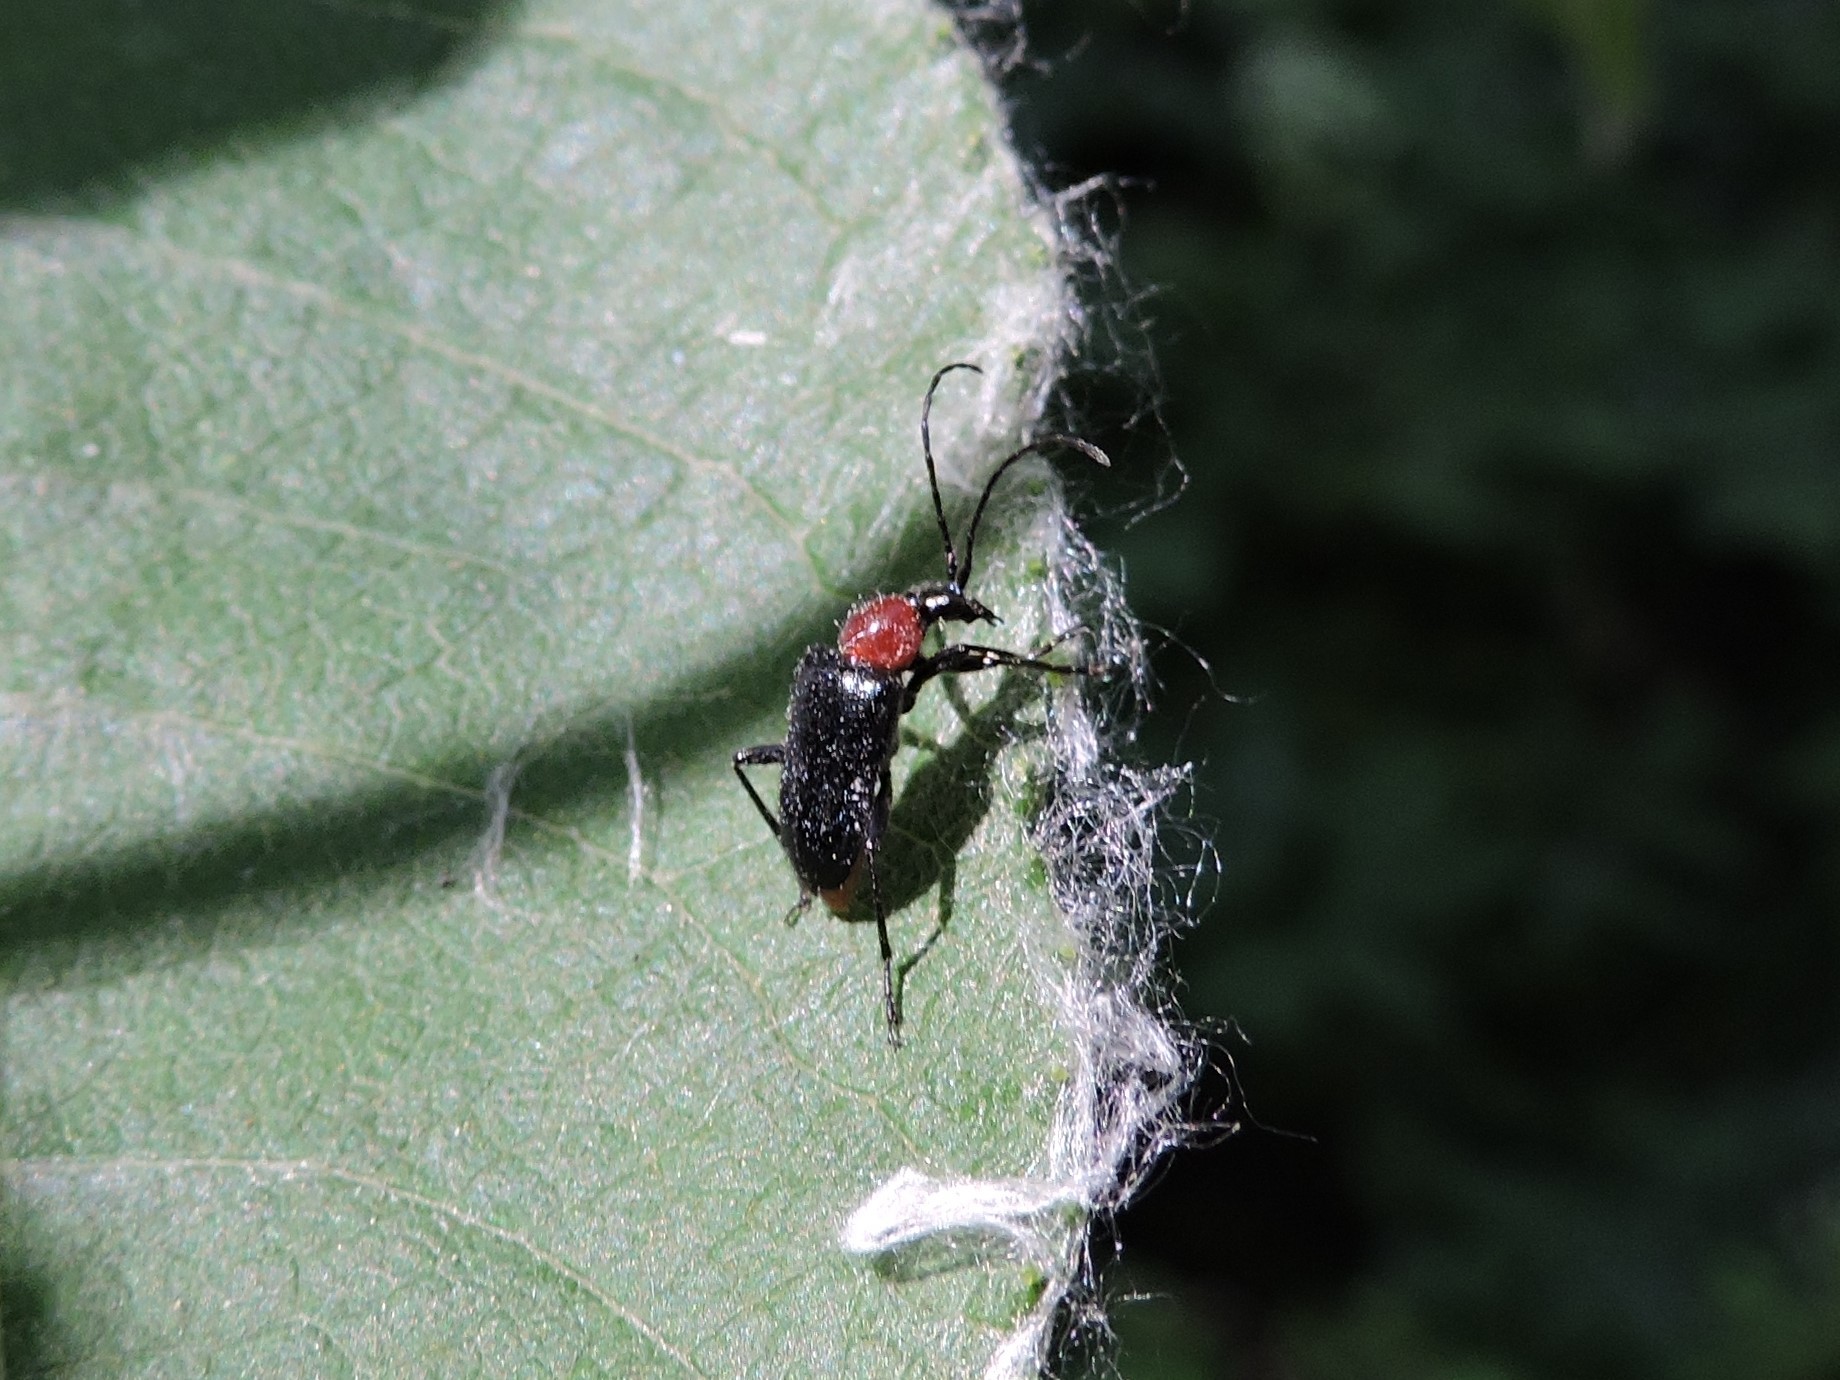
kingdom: Animalia
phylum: Arthropoda
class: Insecta
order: Coleoptera
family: Cerambycidae
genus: Dinoptera
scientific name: Dinoptera collaris
